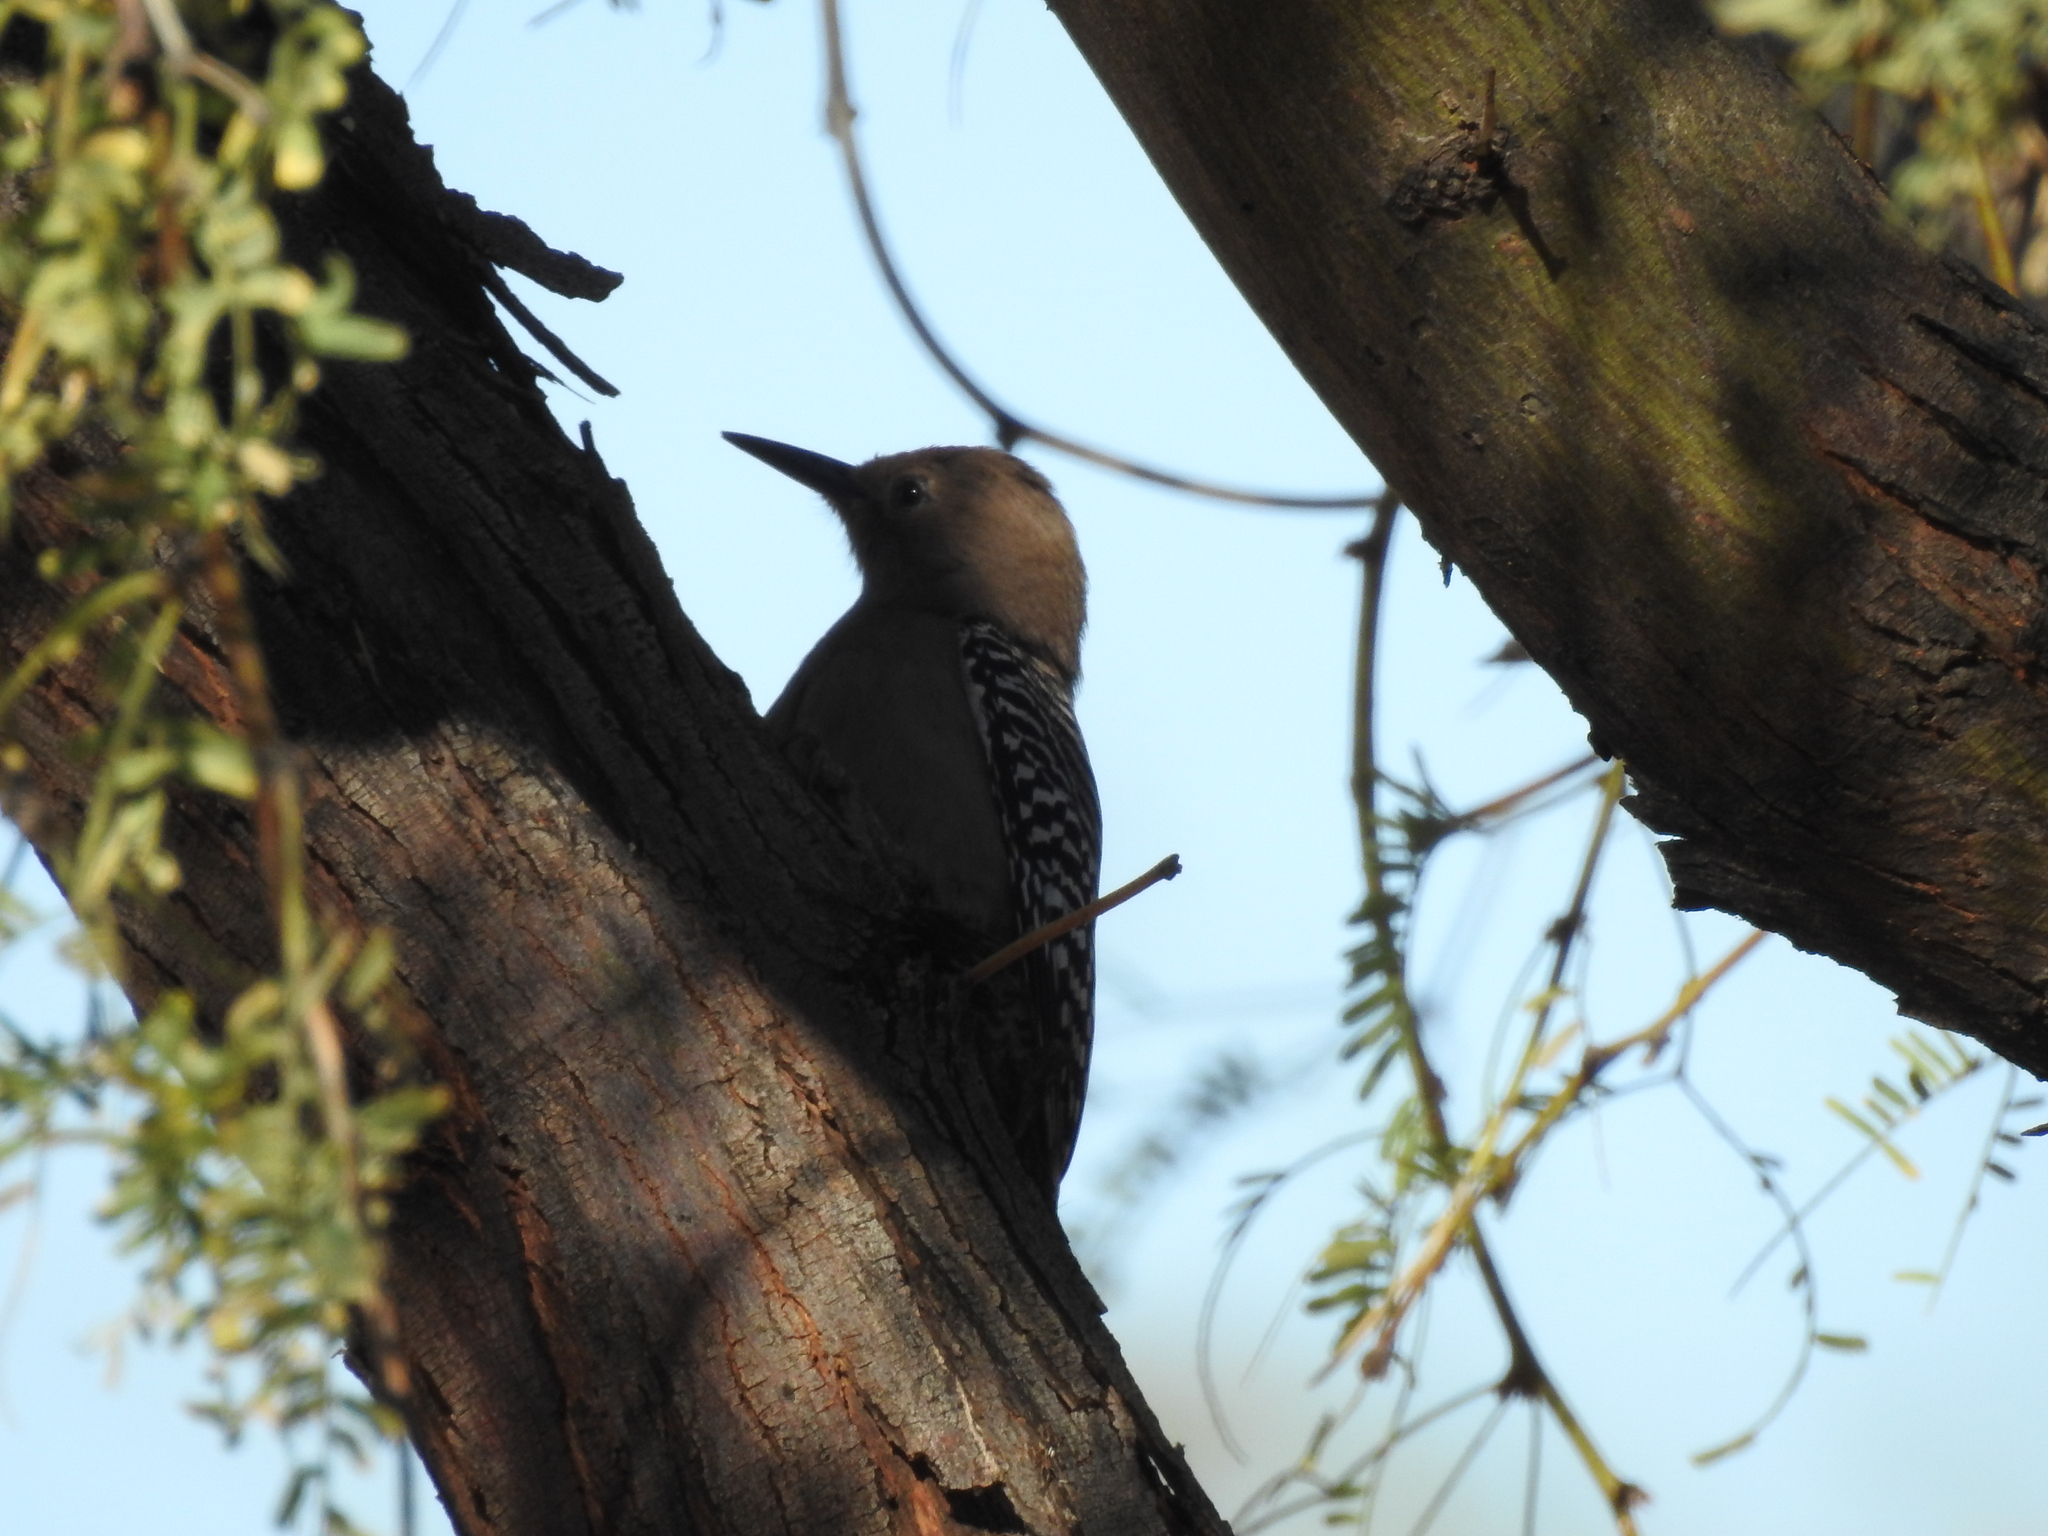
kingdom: Animalia
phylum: Chordata
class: Aves
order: Piciformes
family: Picidae
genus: Melanerpes
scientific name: Melanerpes uropygialis
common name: Gila woodpecker
